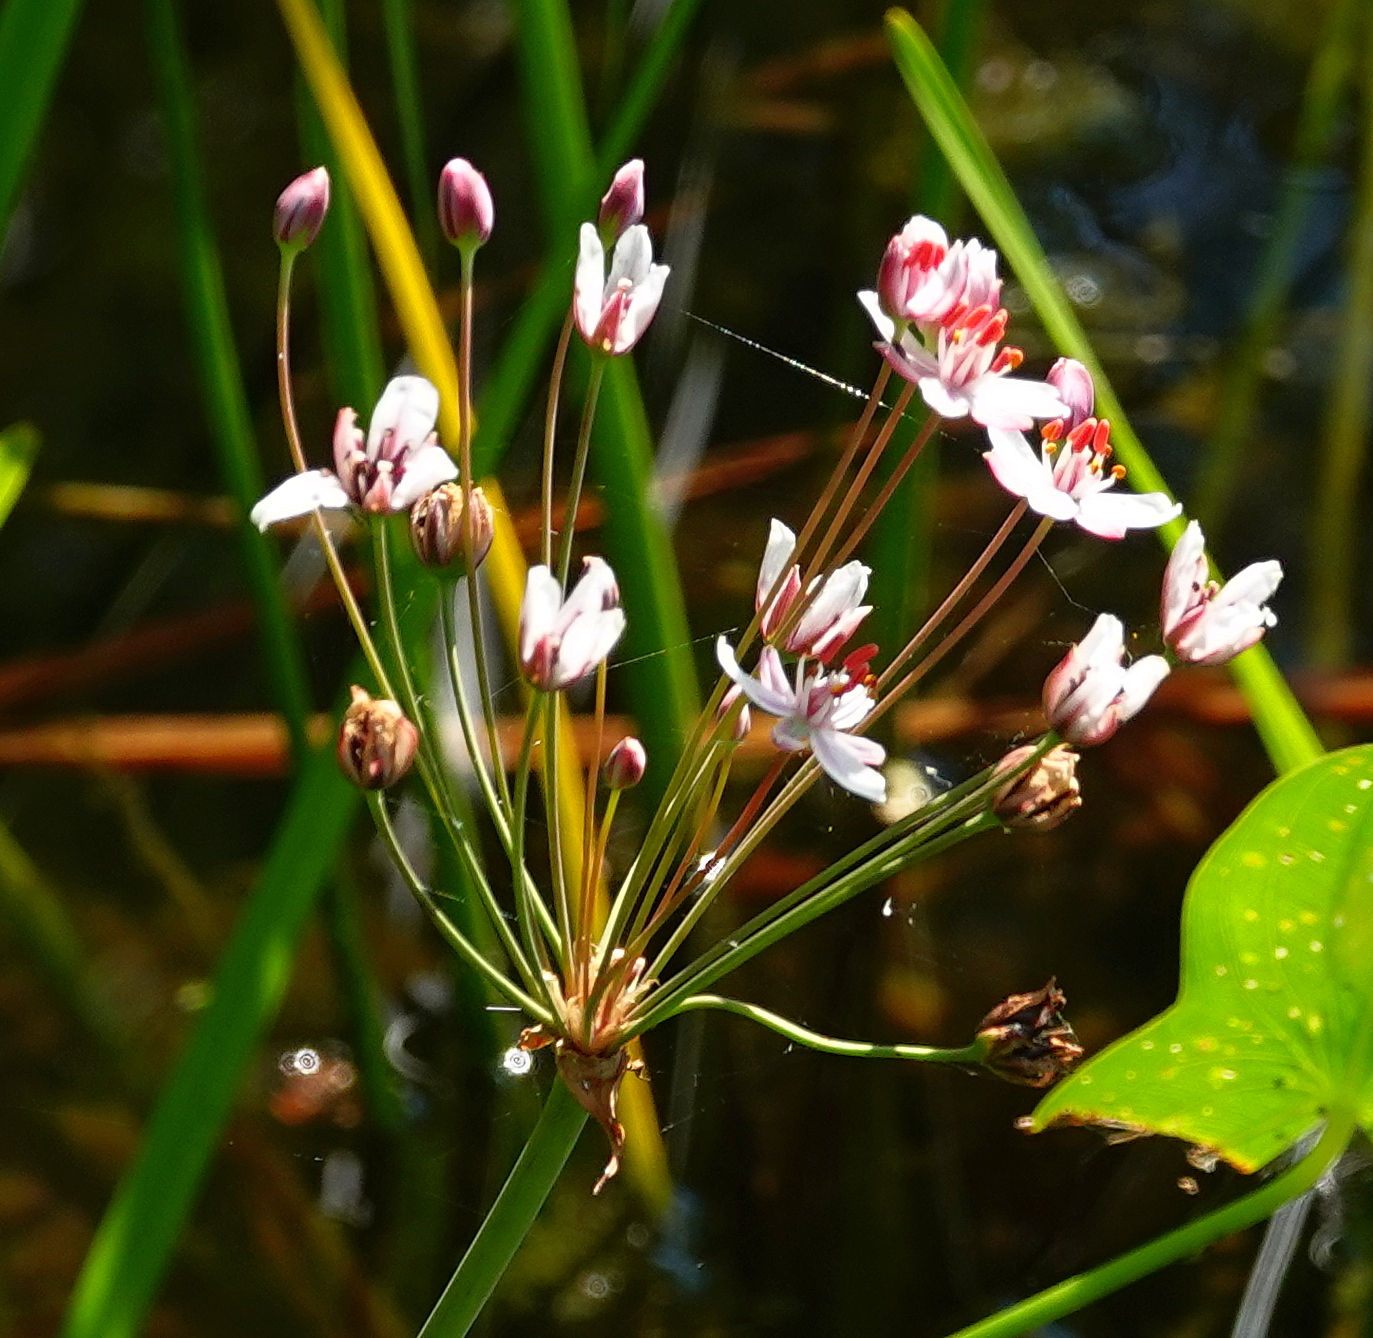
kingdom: Plantae
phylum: Tracheophyta
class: Liliopsida
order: Alismatales
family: Butomaceae
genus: Butomus
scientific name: Butomus umbellatus
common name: Flowering-rush
